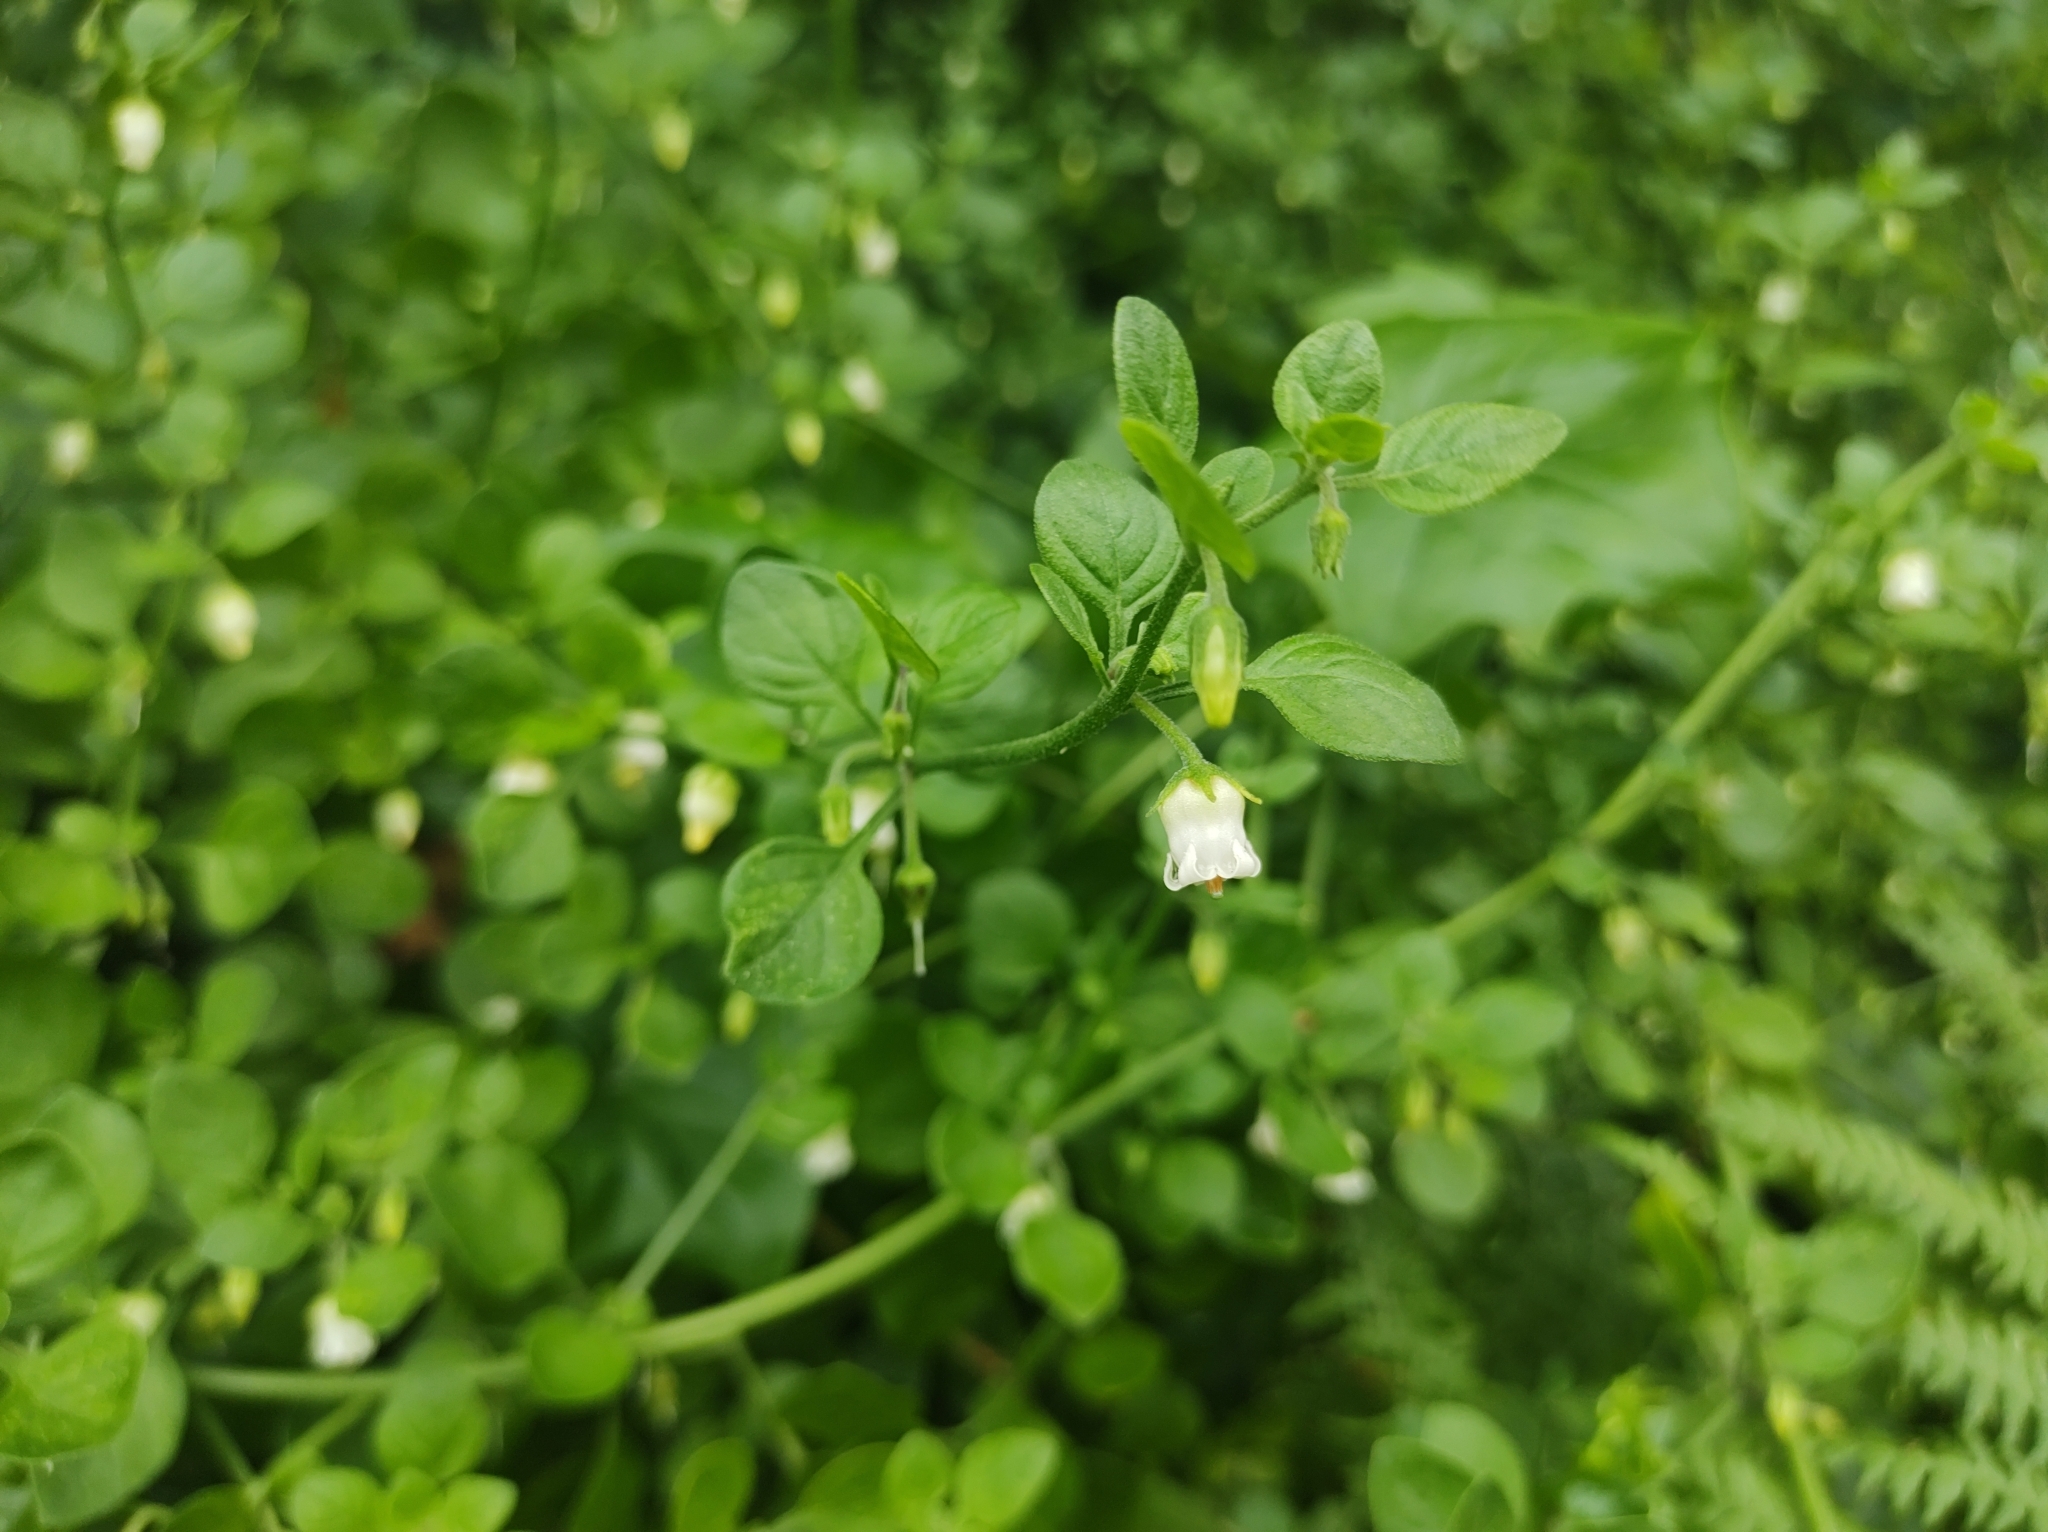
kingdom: Plantae
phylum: Tracheophyta
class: Magnoliopsida
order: Solanales
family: Solanaceae
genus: Salpichroa
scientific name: Salpichroa origanifolia
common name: Lily-of-the-valley-vine
